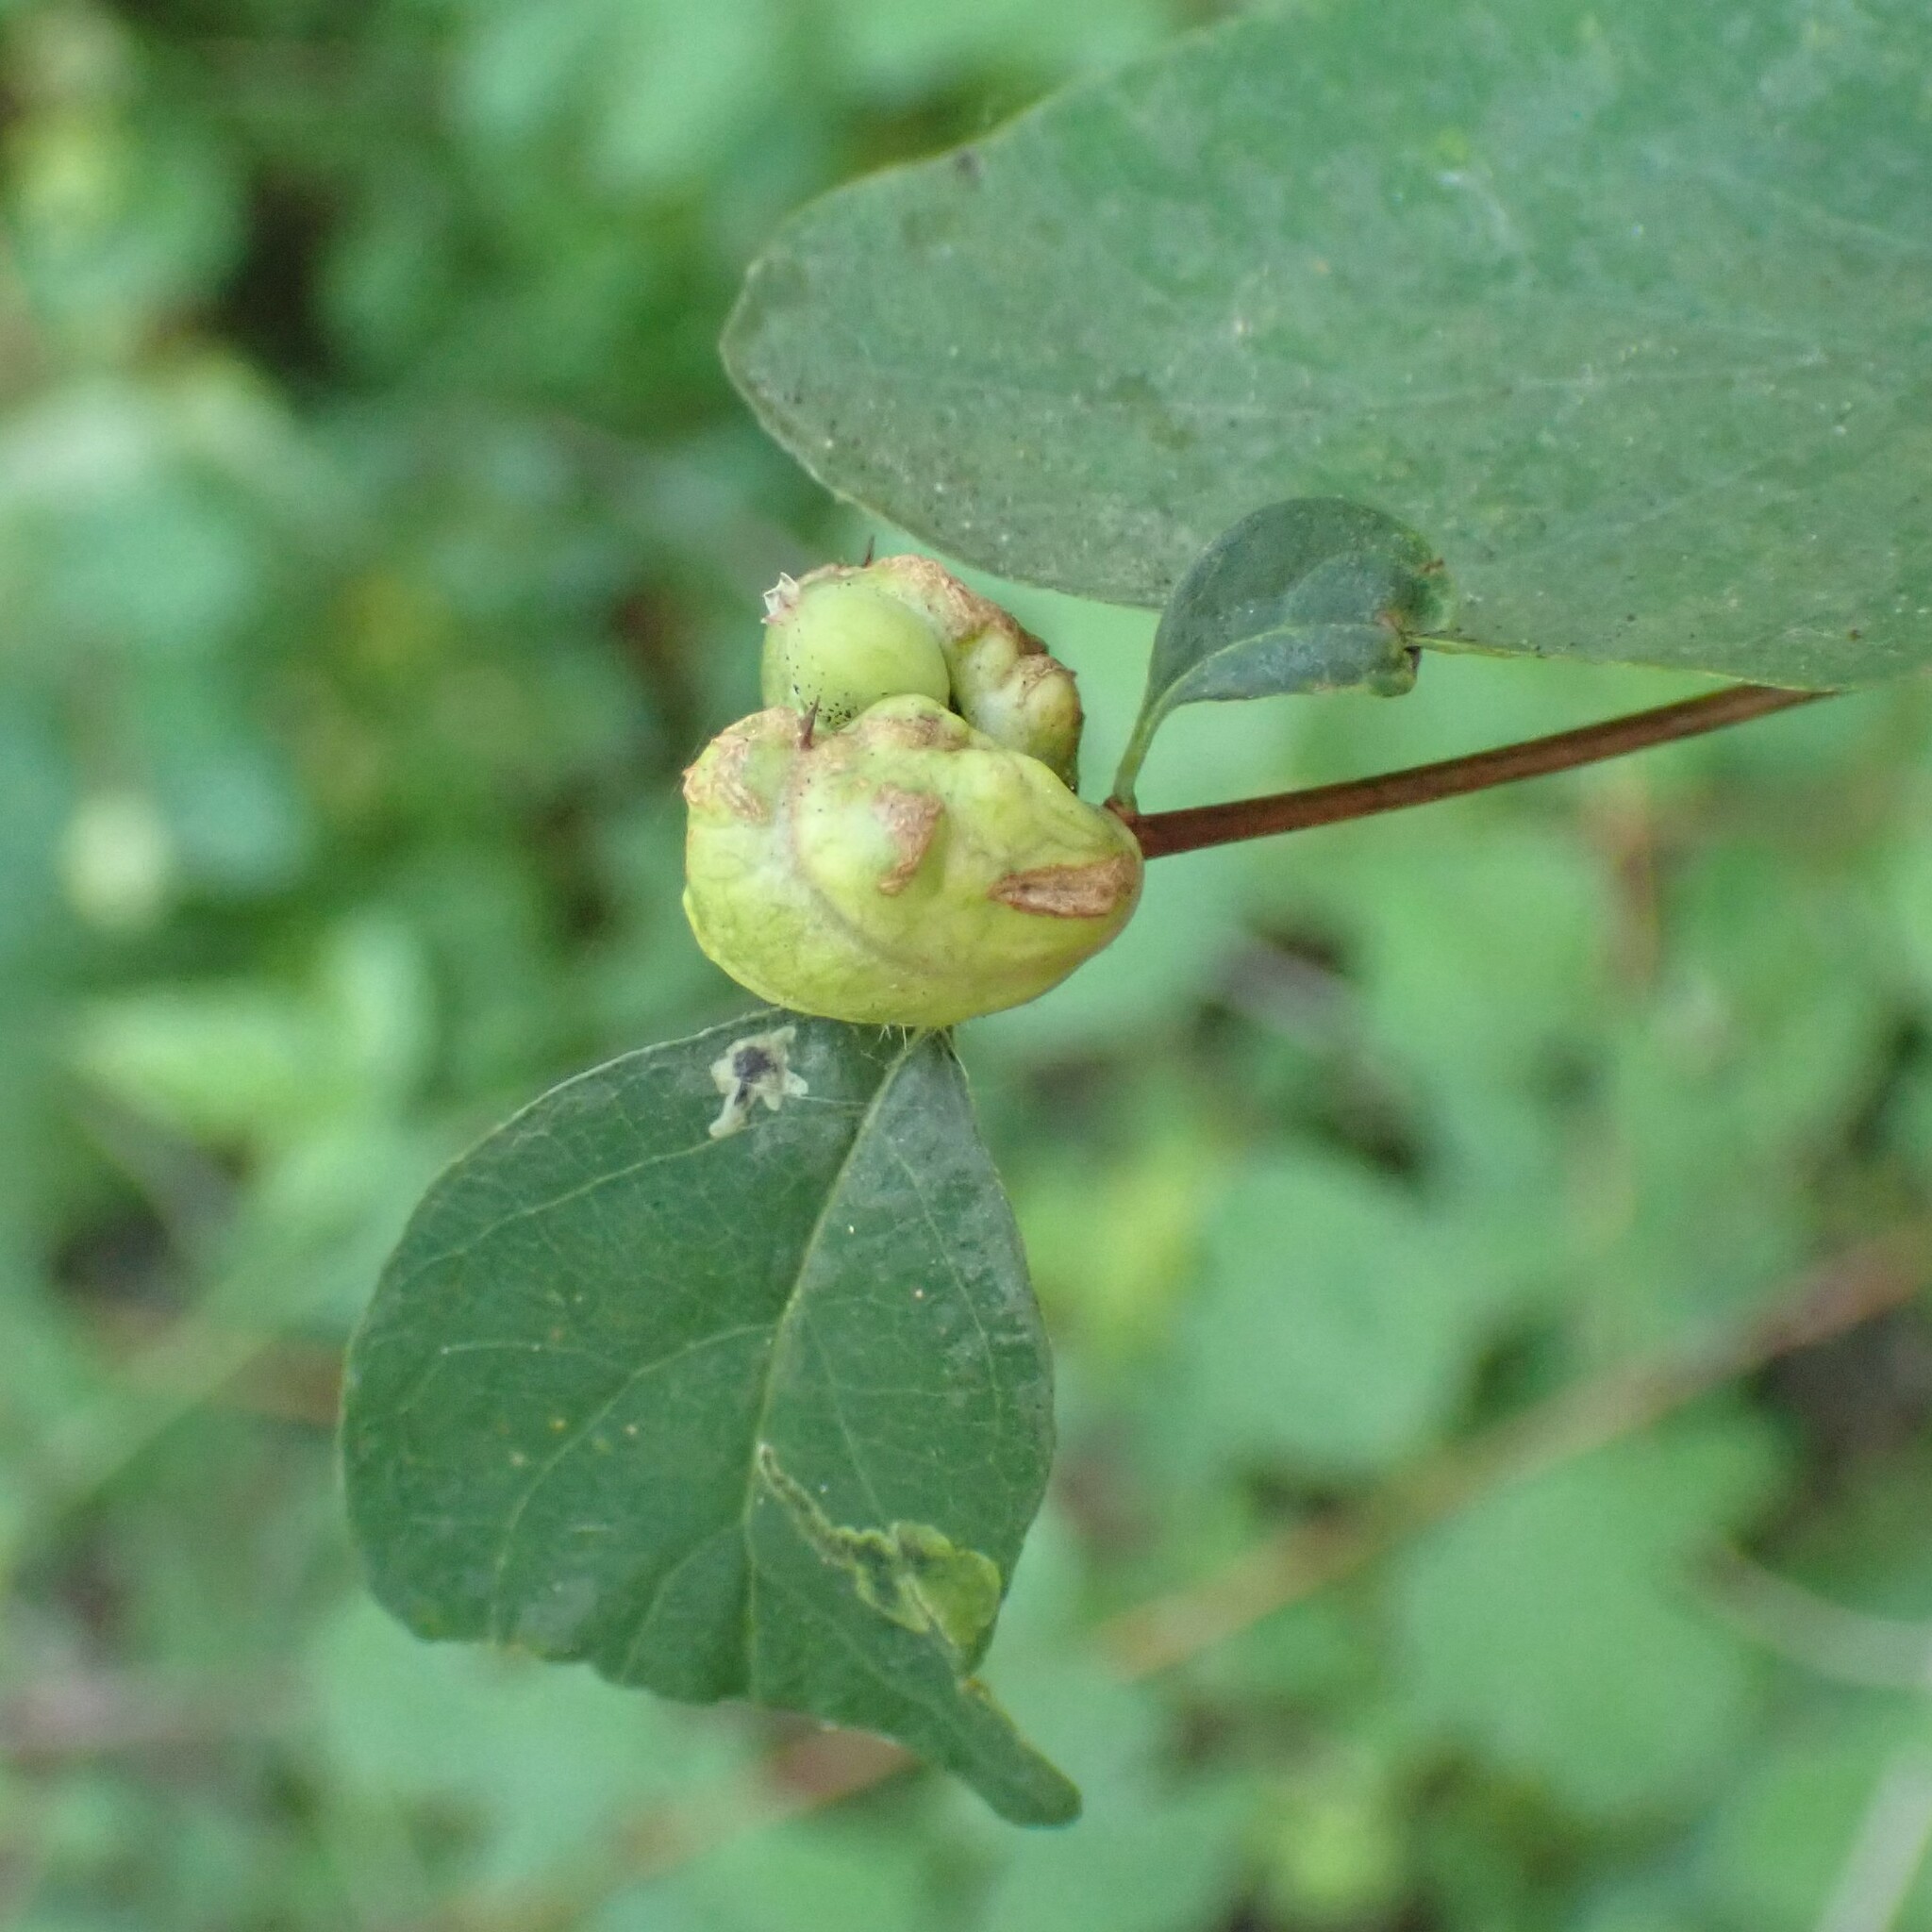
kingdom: Animalia
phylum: Arthropoda
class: Insecta
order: Hymenoptera
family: Tenthredinidae
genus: Blennogeneris
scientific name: Blennogeneris spissipes
